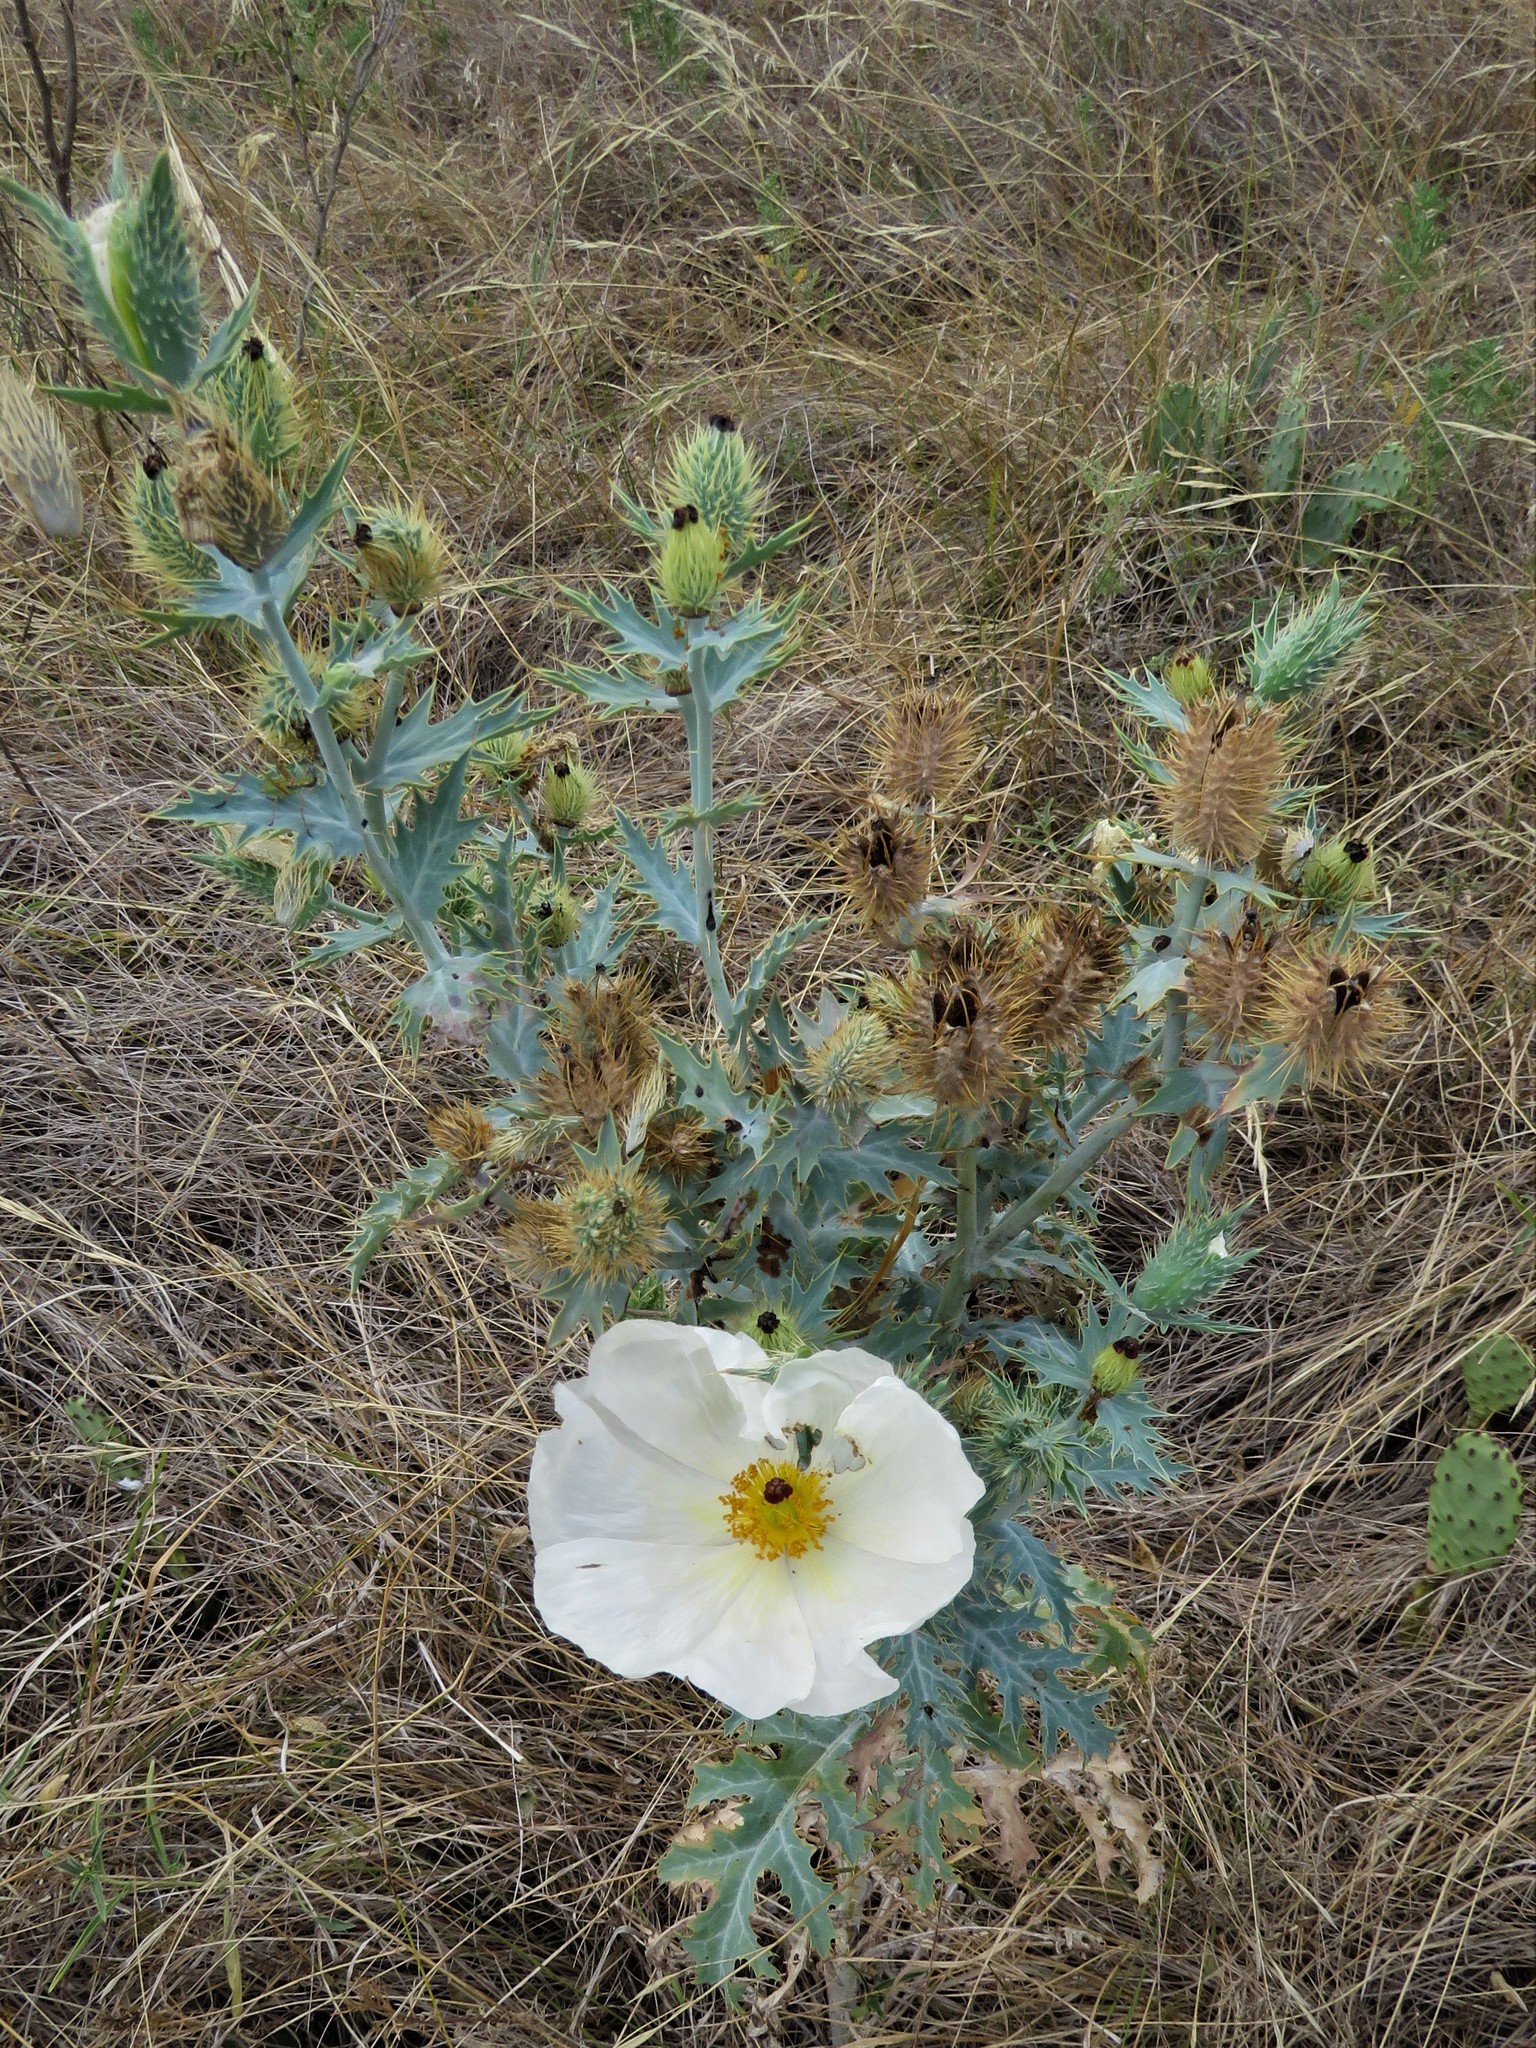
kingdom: Plantae
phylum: Tracheophyta
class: Magnoliopsida
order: Ranunculales
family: Papaveraceae
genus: Argemone
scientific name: Argemone albiflora
